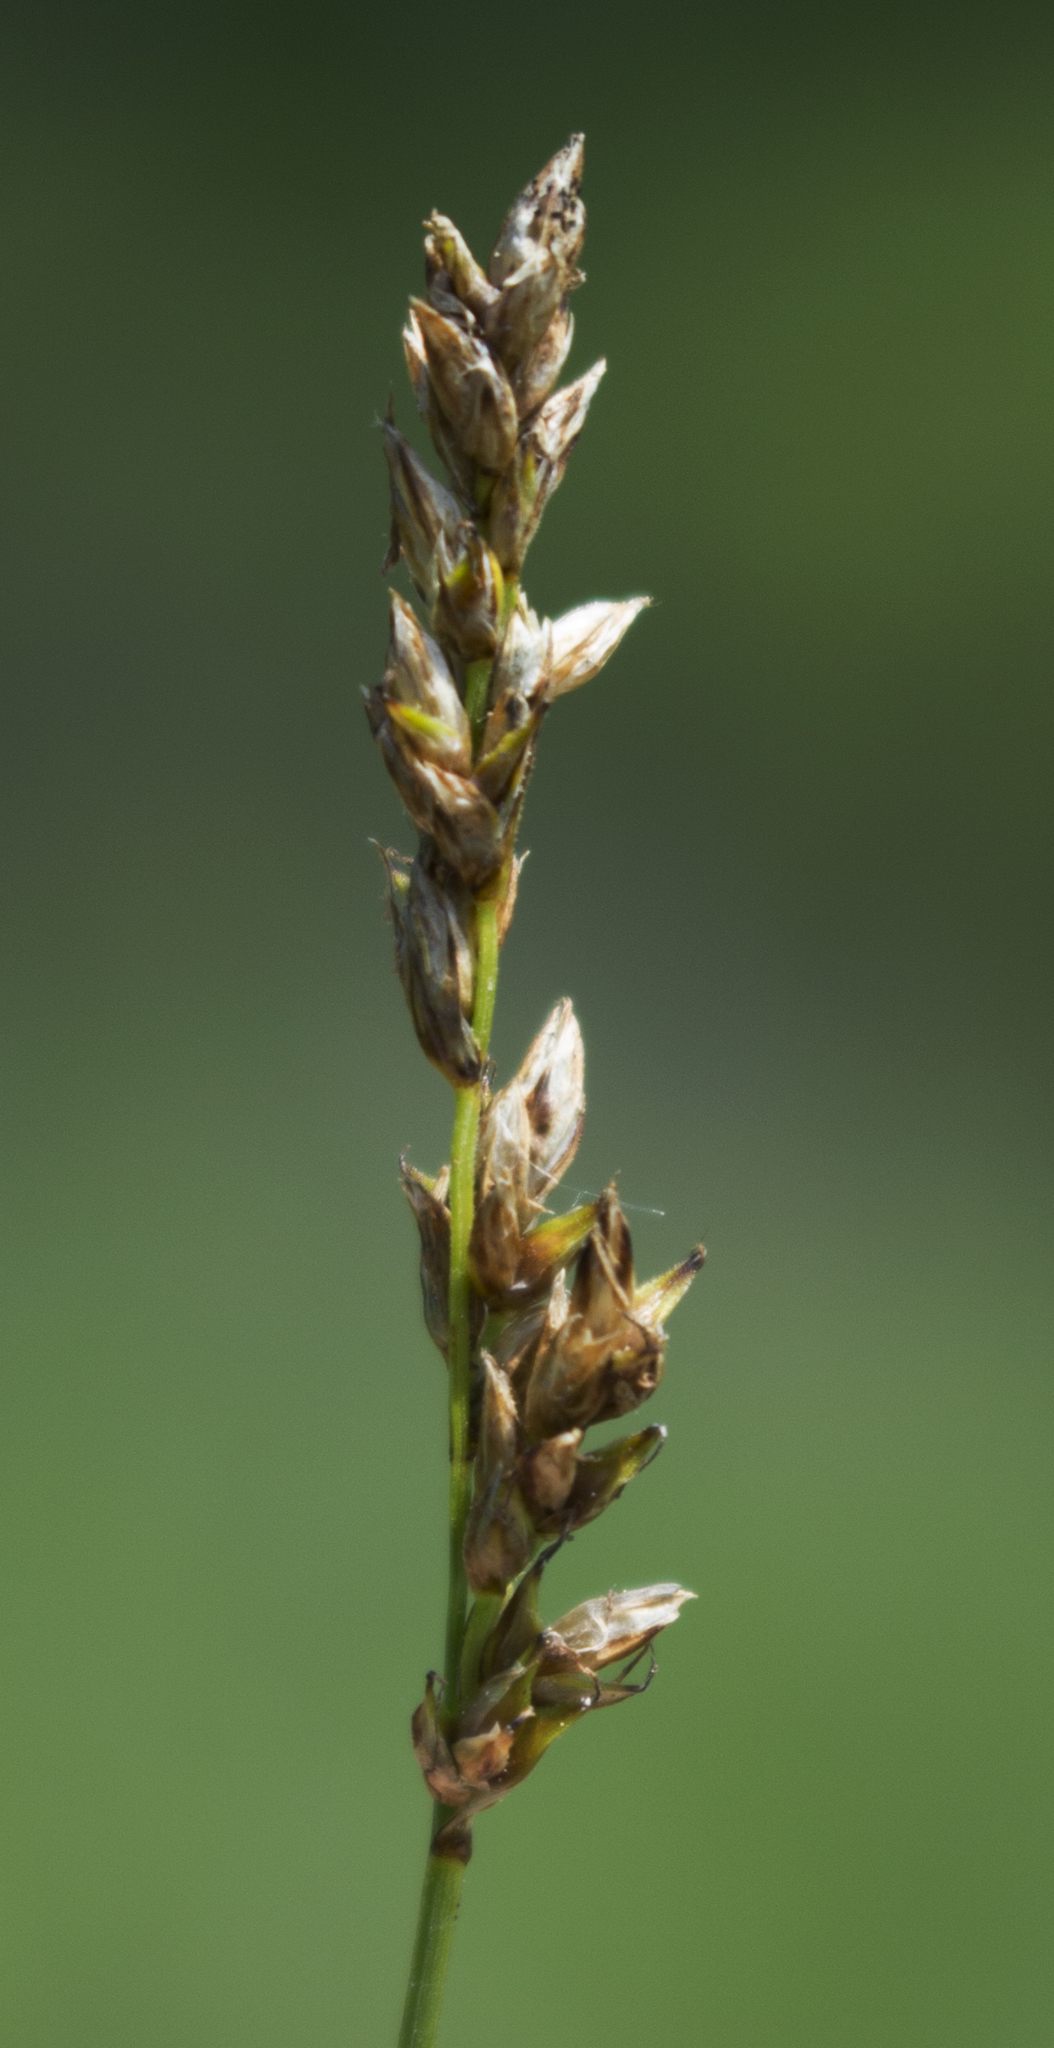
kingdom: Plantae
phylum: Tracheophyta
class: Liliopsida
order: Poales
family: Cyperaceae
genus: Carex
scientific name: Carex prairea
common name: Prairie sedge
